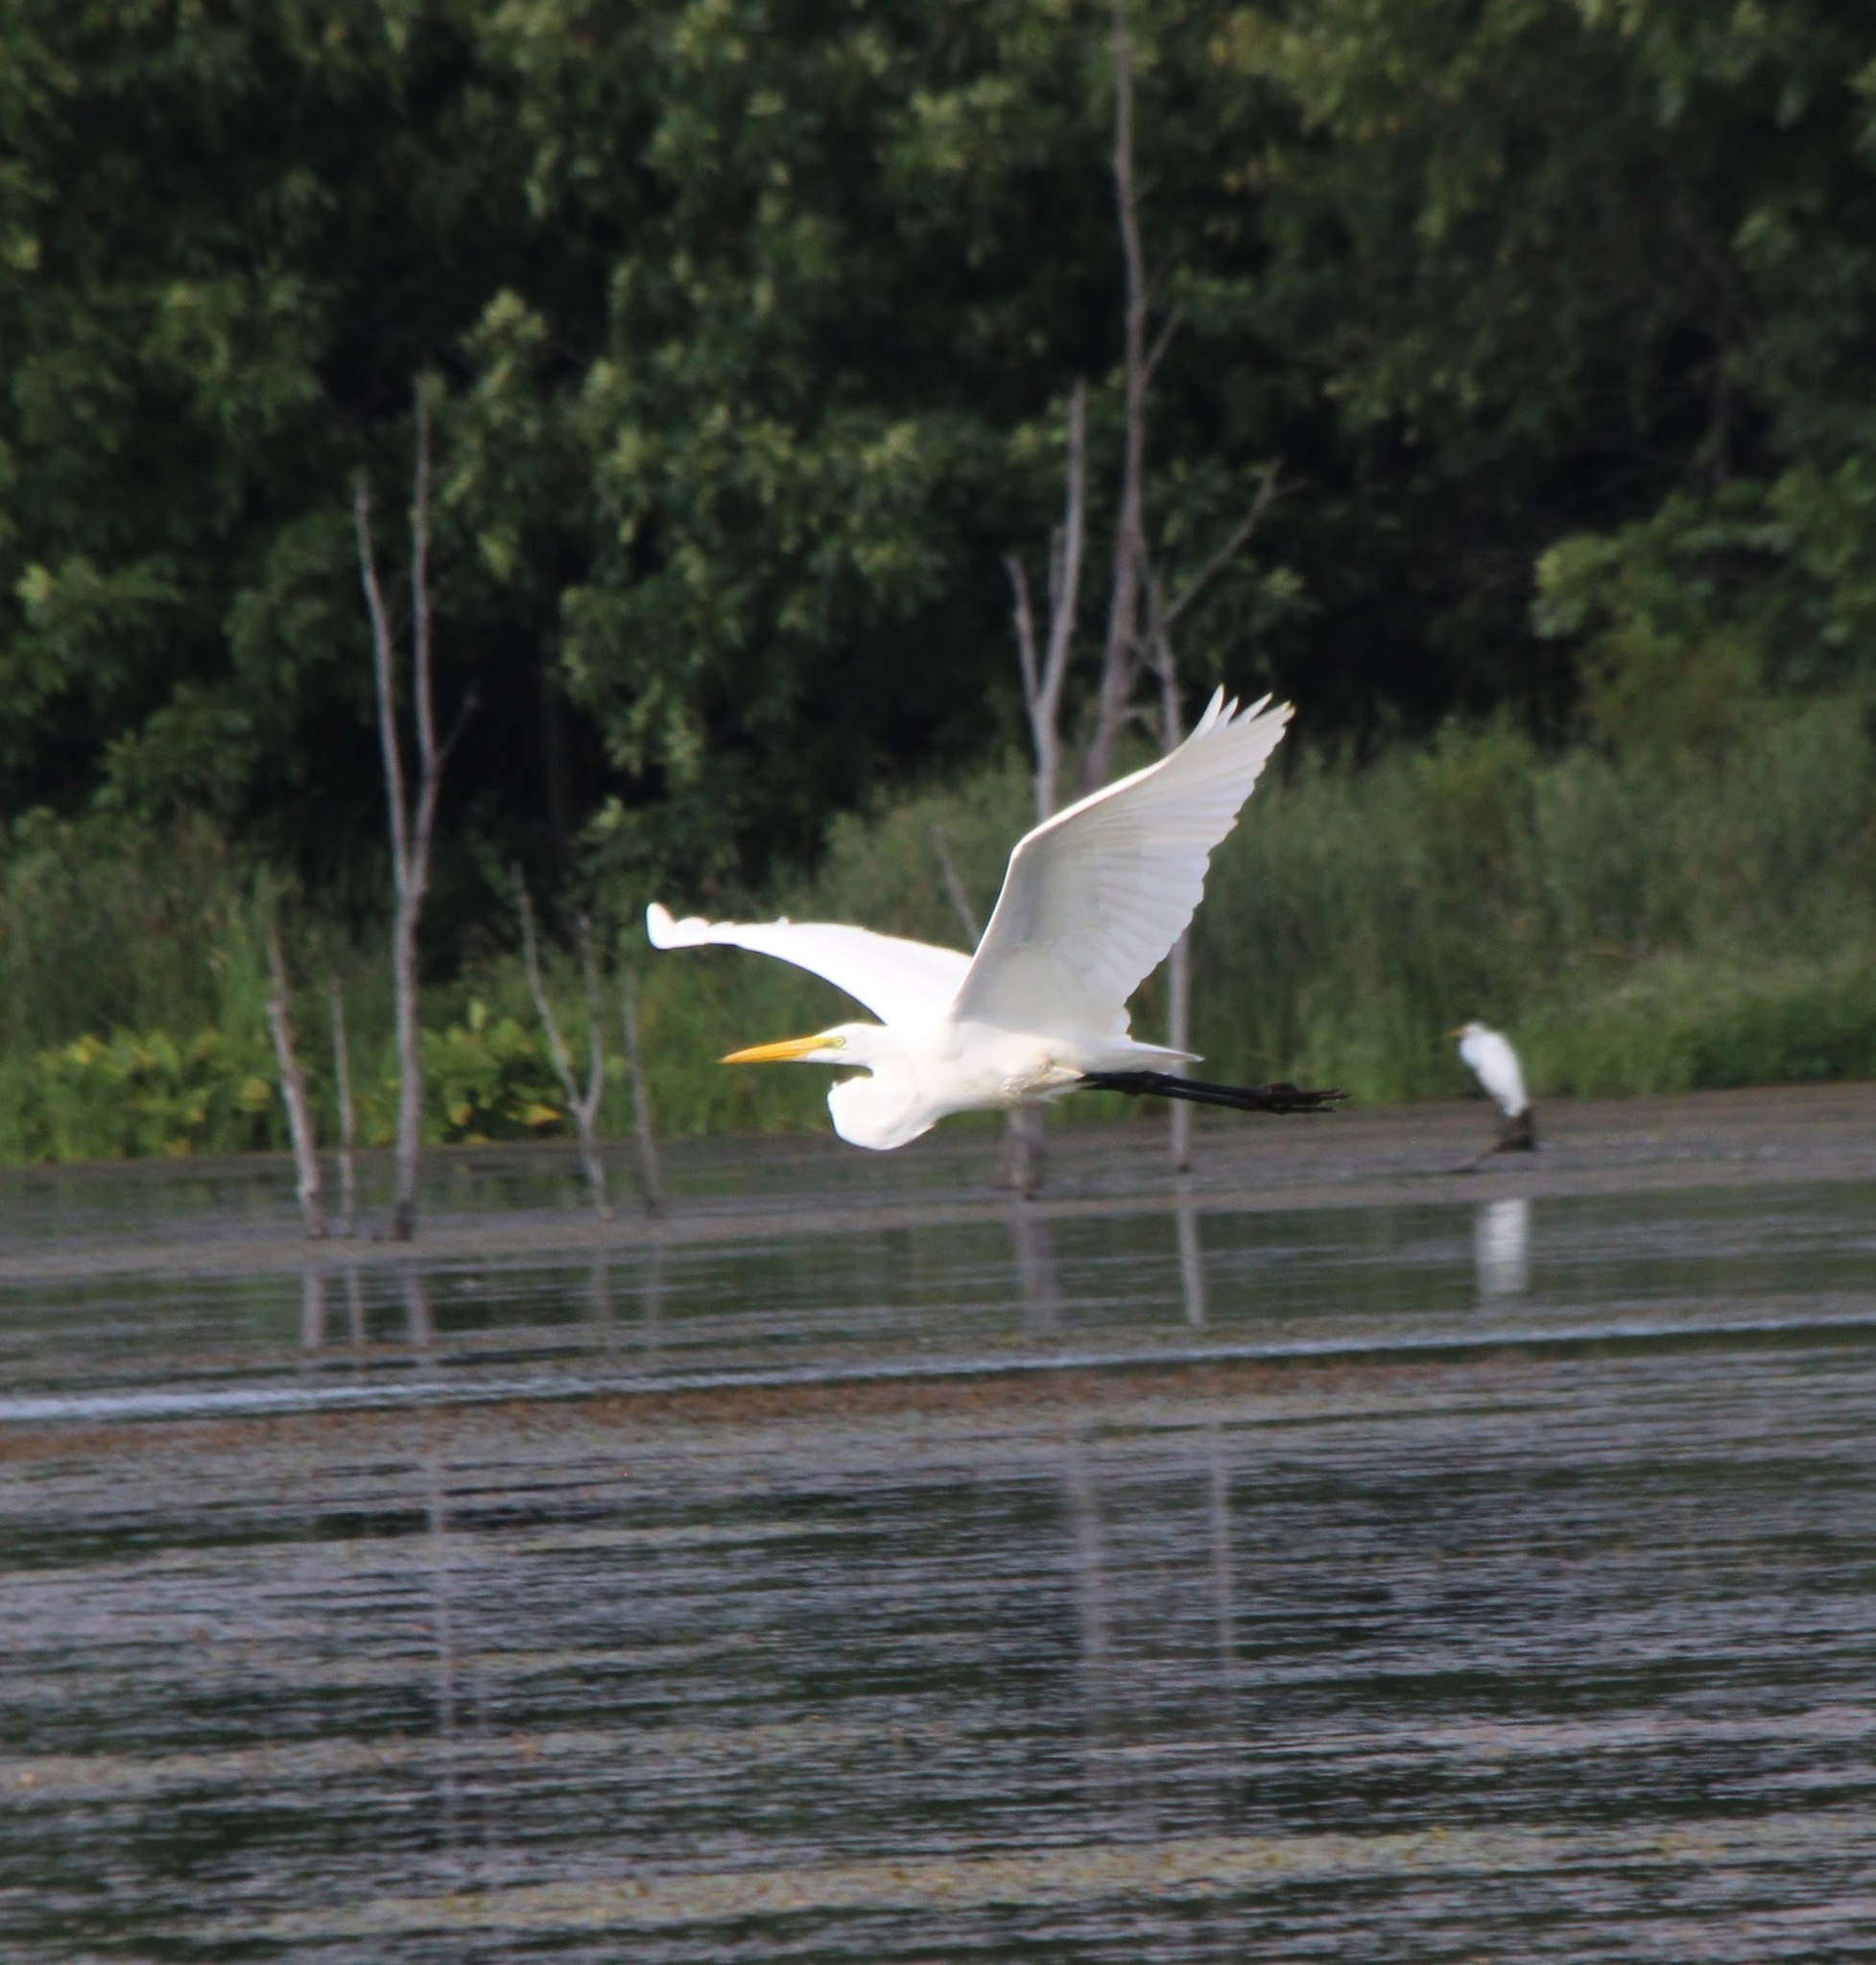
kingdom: Animalia
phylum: Chordata
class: Aves
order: Pelecaniformes
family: Ardeidae
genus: Ardea
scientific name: Ardea alba
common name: Great egret
